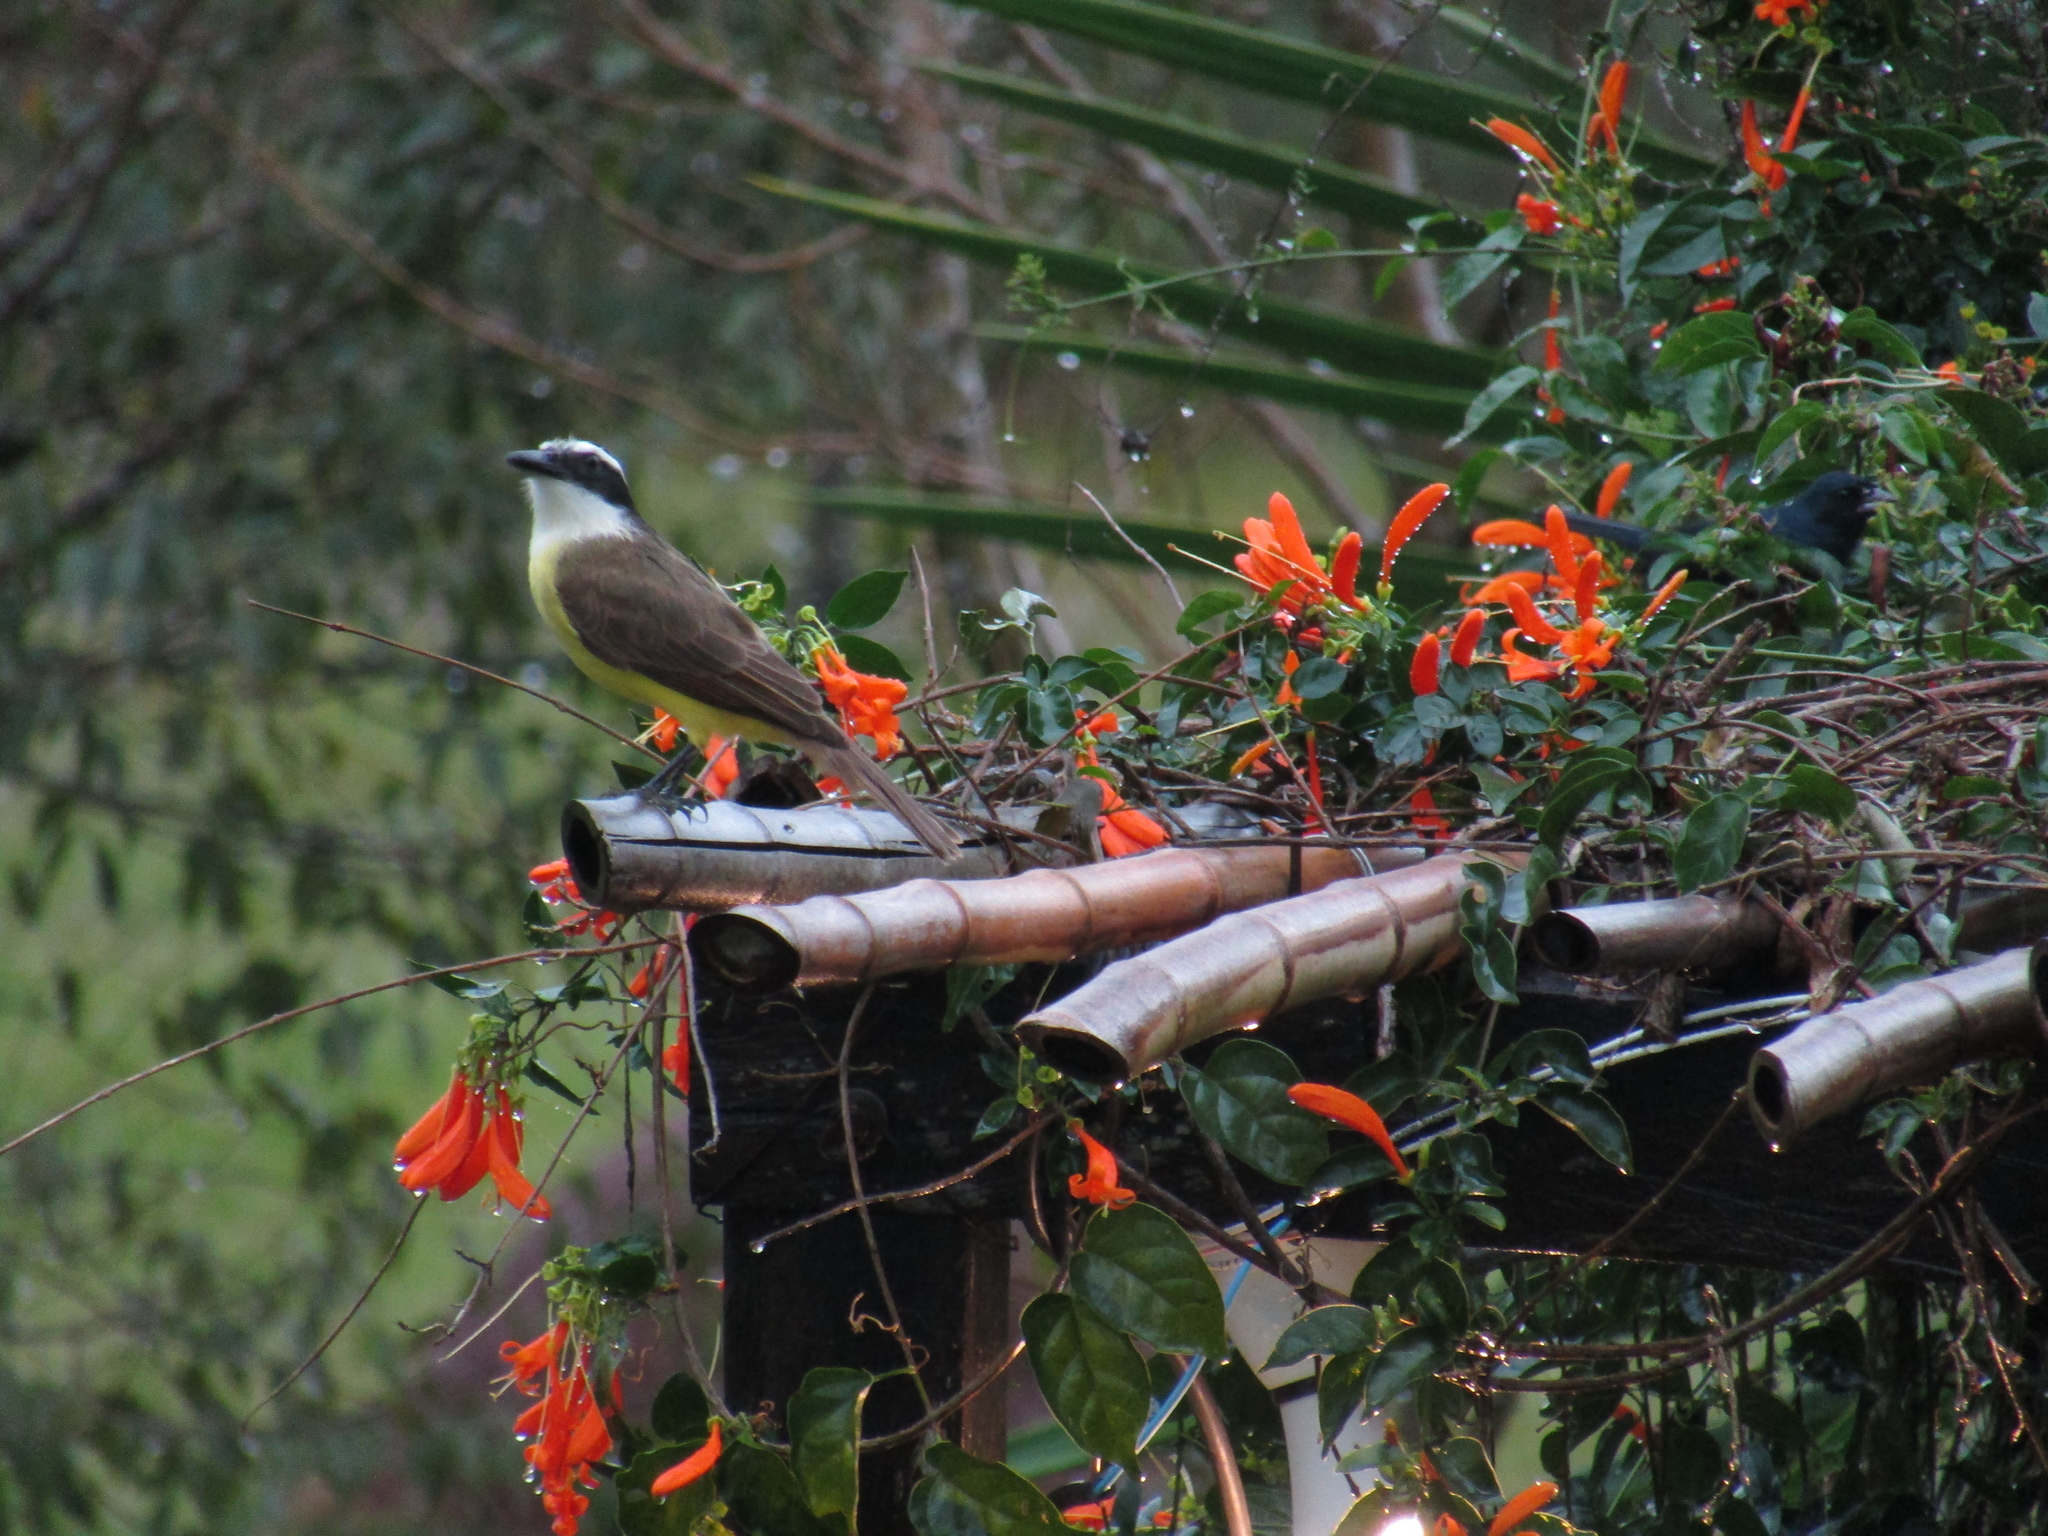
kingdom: Animalia
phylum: Chordata
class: Aves
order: Passeriformes
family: Tyrannidae
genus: Pitangus
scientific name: Pitangus sulphuratus
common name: Great kiskadee
